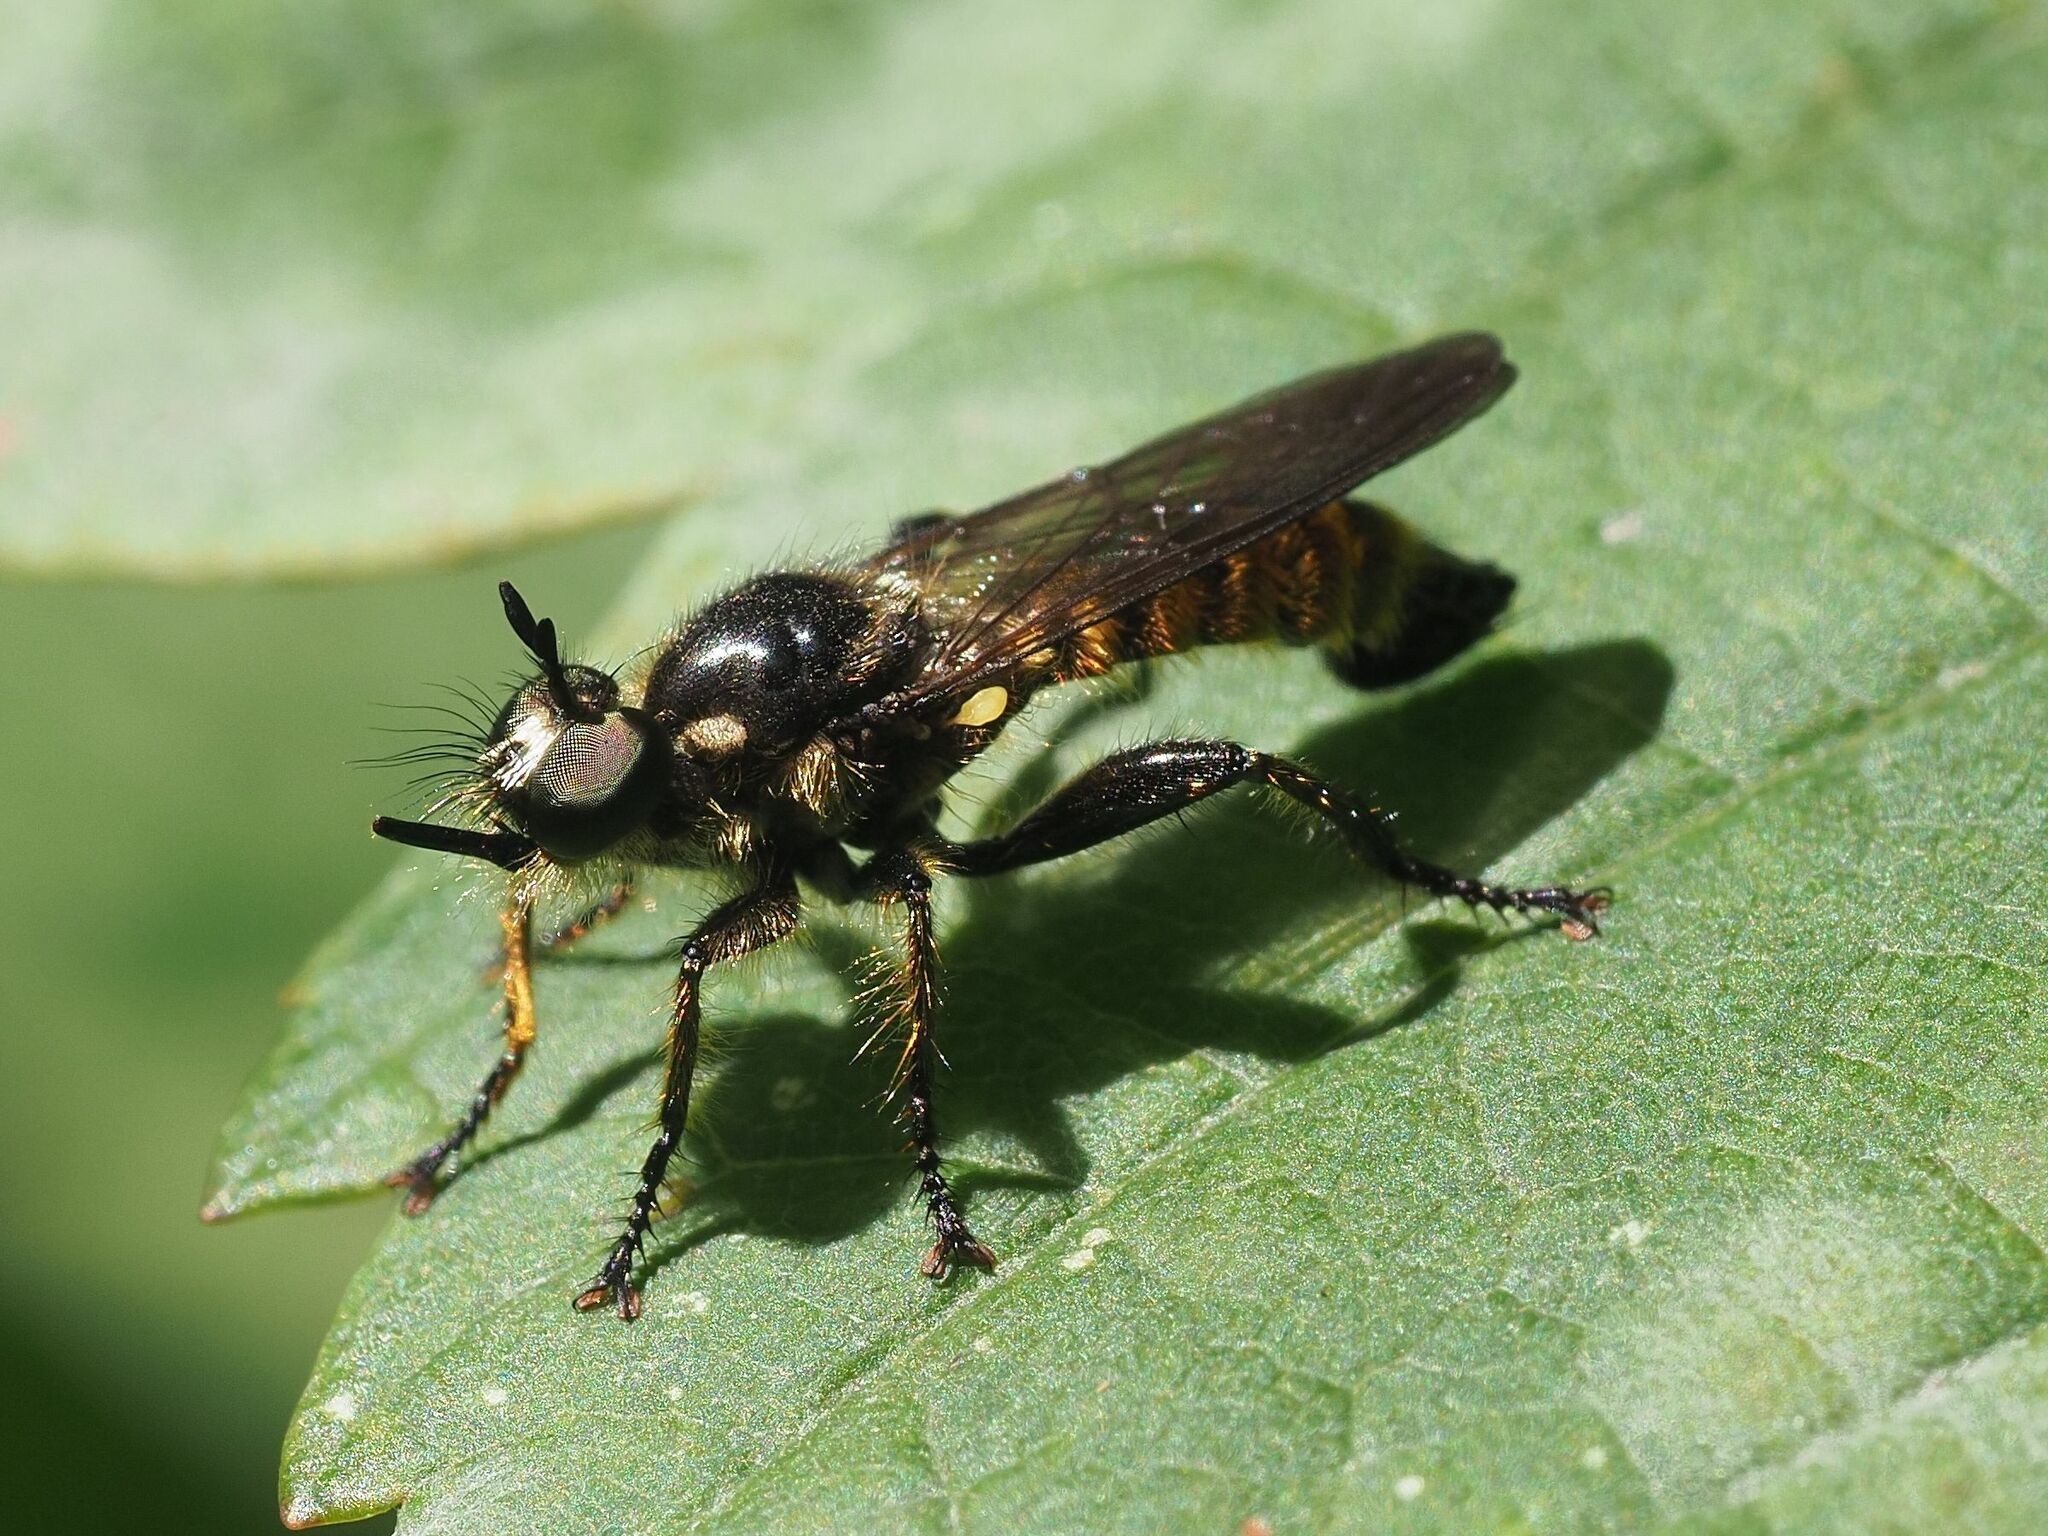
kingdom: Animalia
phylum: Arthropoda
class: Insecta
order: Diptera
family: Asilidae
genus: Lamyra
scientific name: Lamyra fimbriata
